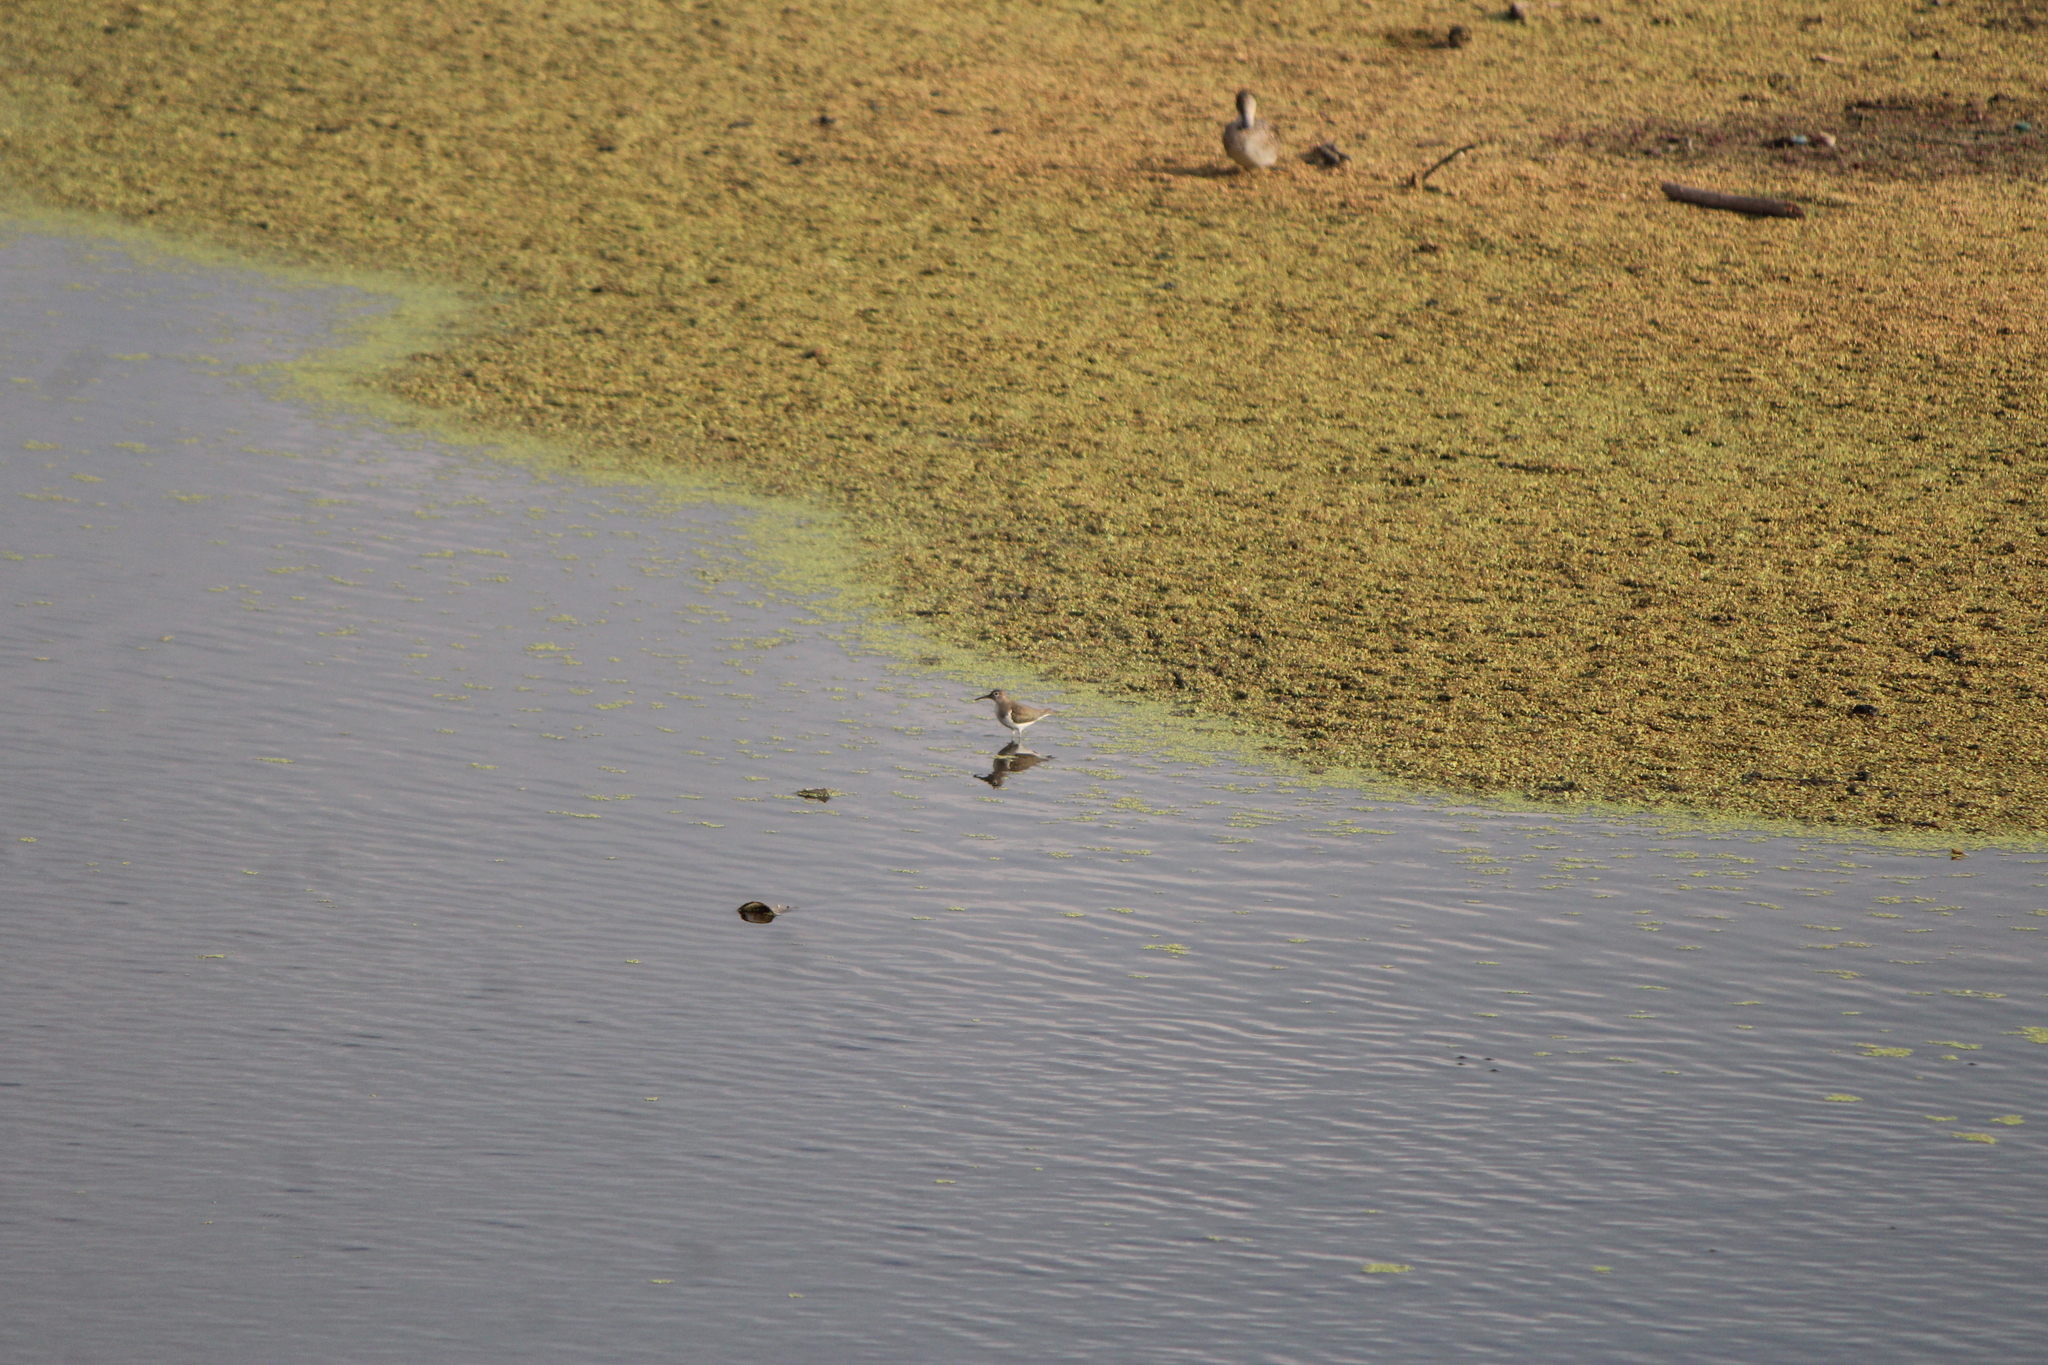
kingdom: Animalia
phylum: Chordata
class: Aves
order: Charadriiformes
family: Scolopacidae
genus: Actitis
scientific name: Actitis macularius
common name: Spotted sandpiper
